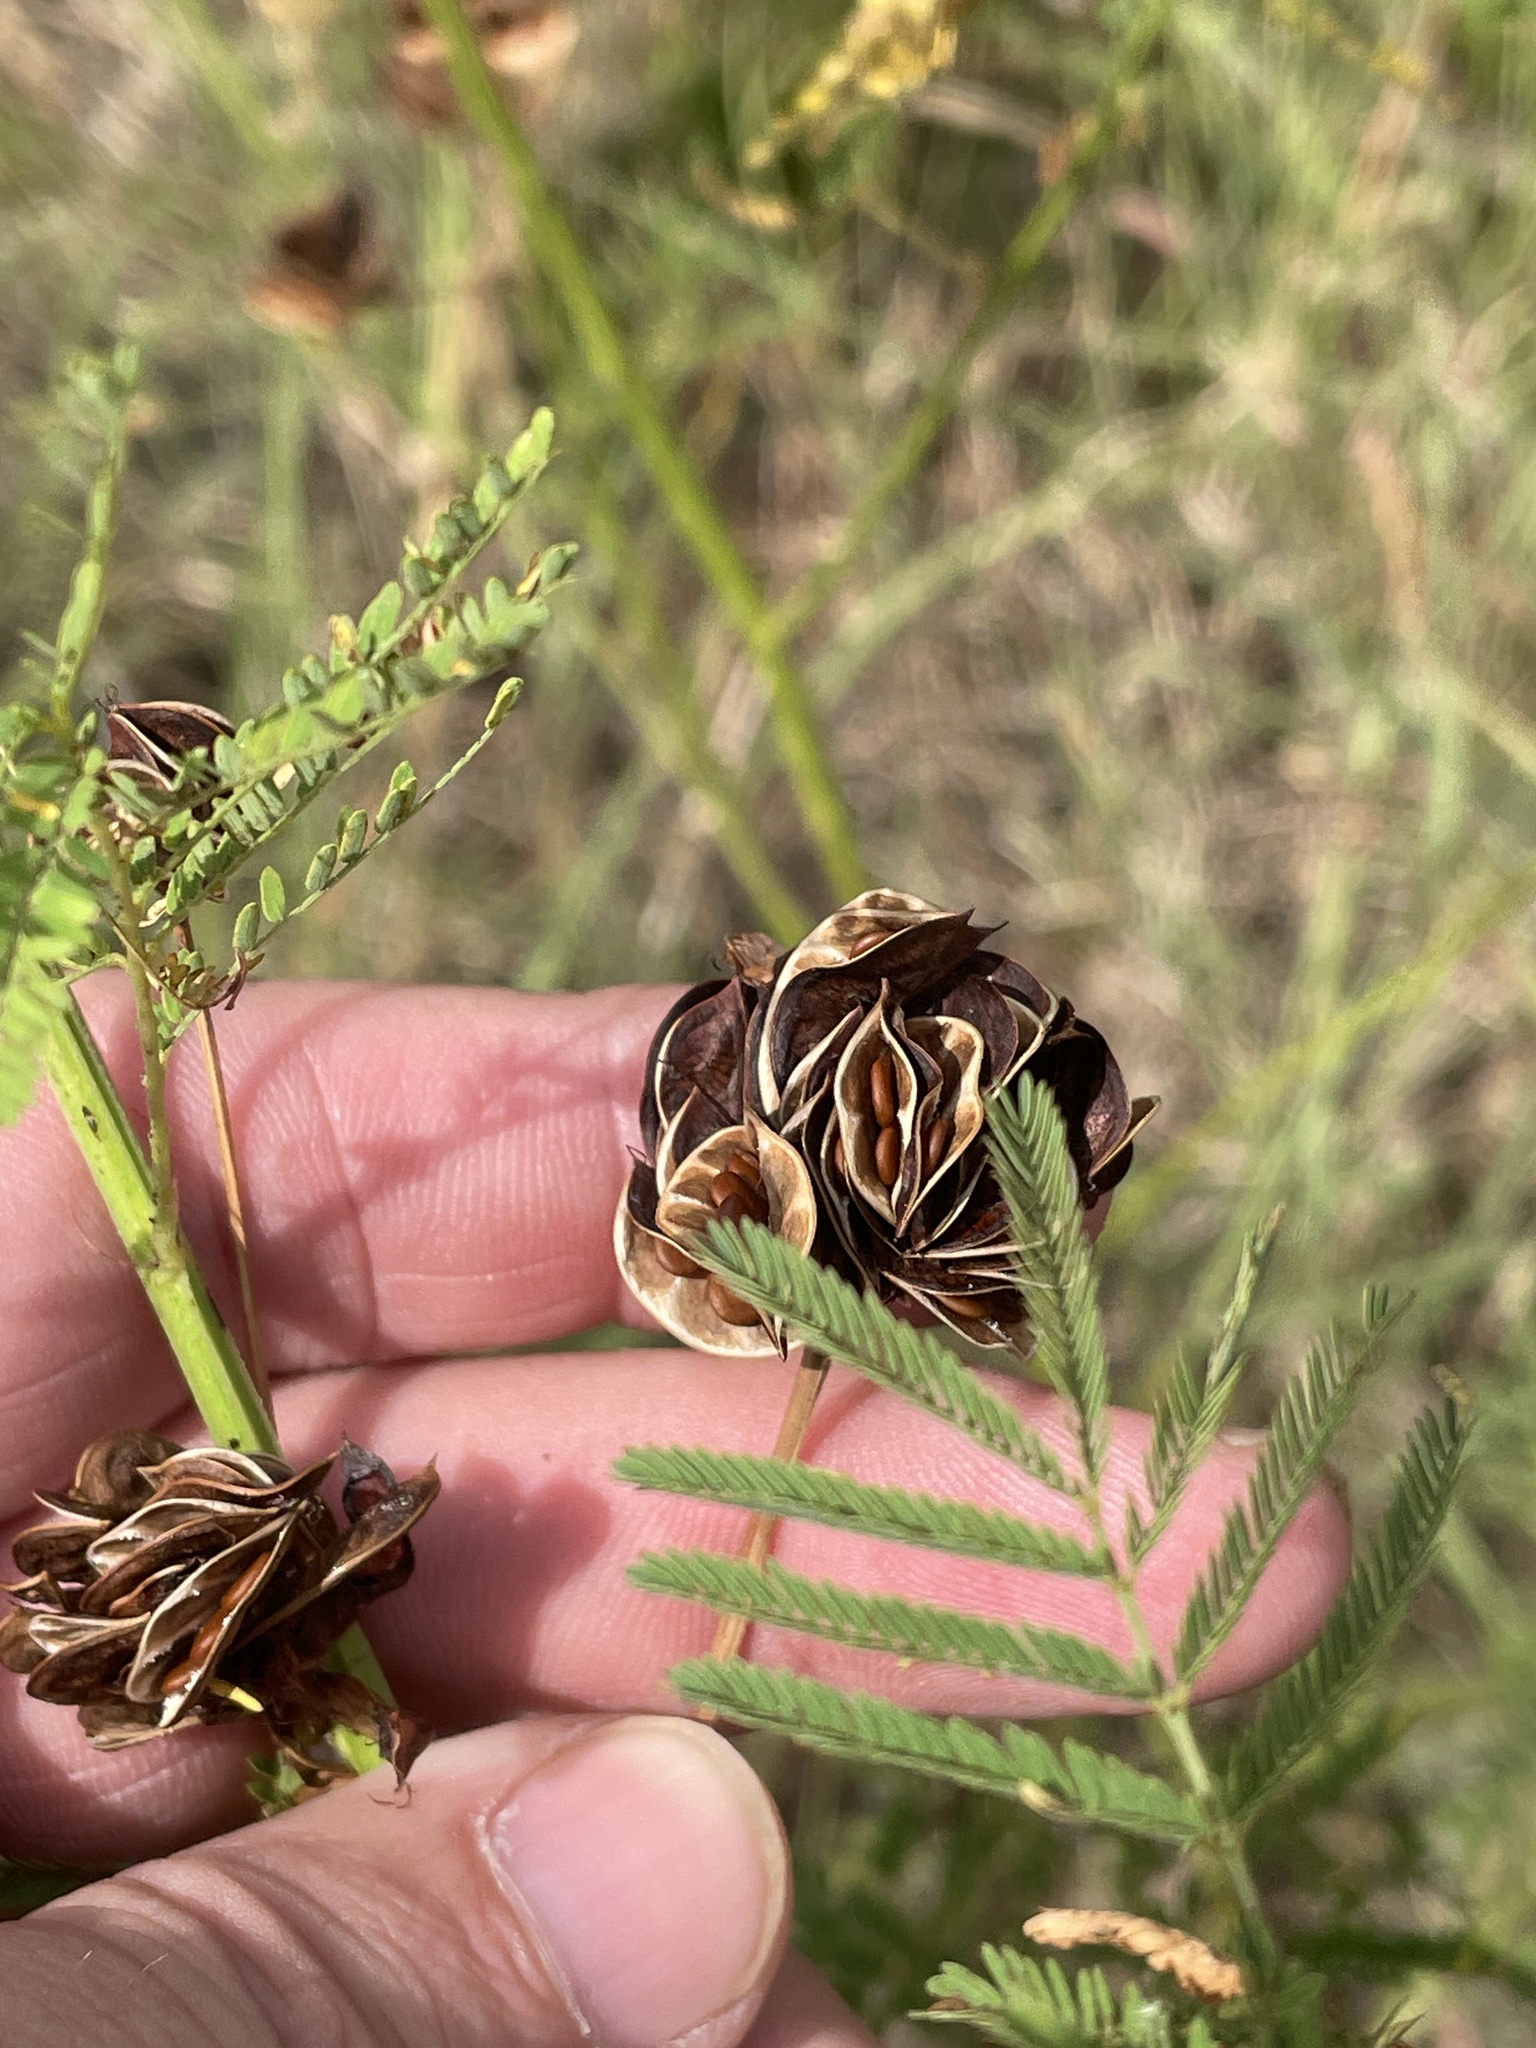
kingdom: Plantae
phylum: Tracheophyta
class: Magnoliopsida
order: Fabales
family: Fabaceae
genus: Desmanthus
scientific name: Desmanthus illinoensis
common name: Illinois bundle-flower
